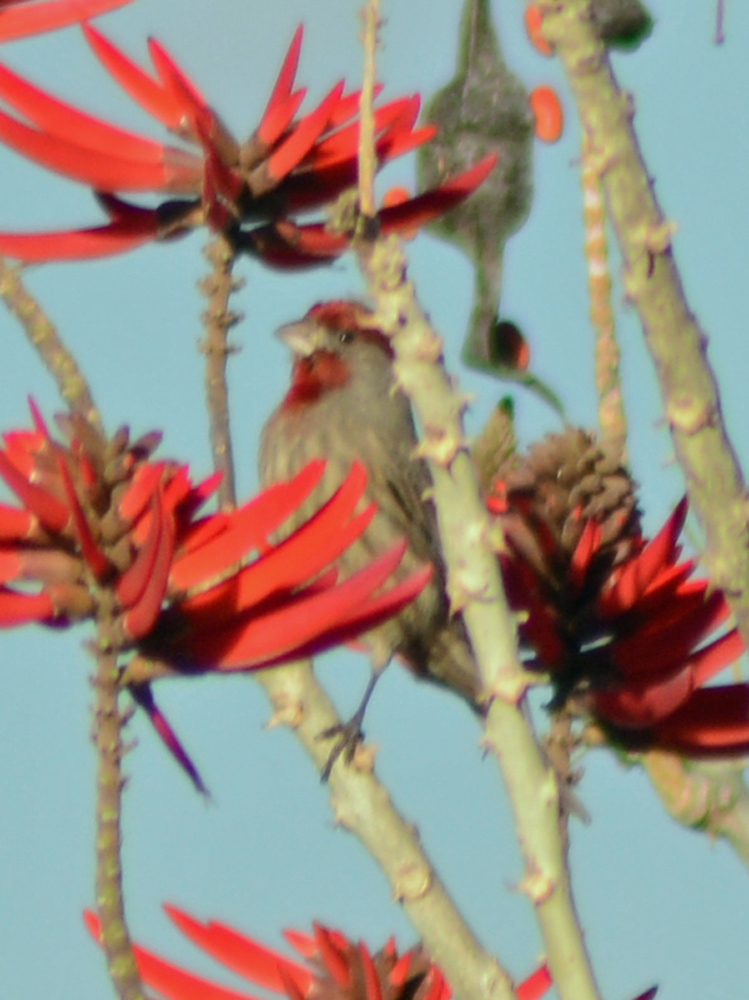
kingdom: Animalia
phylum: Chordata
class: Aves
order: Passeriformes
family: Fringillidae
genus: Haemorhous
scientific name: Haemorhous mexicanus
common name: House finch
